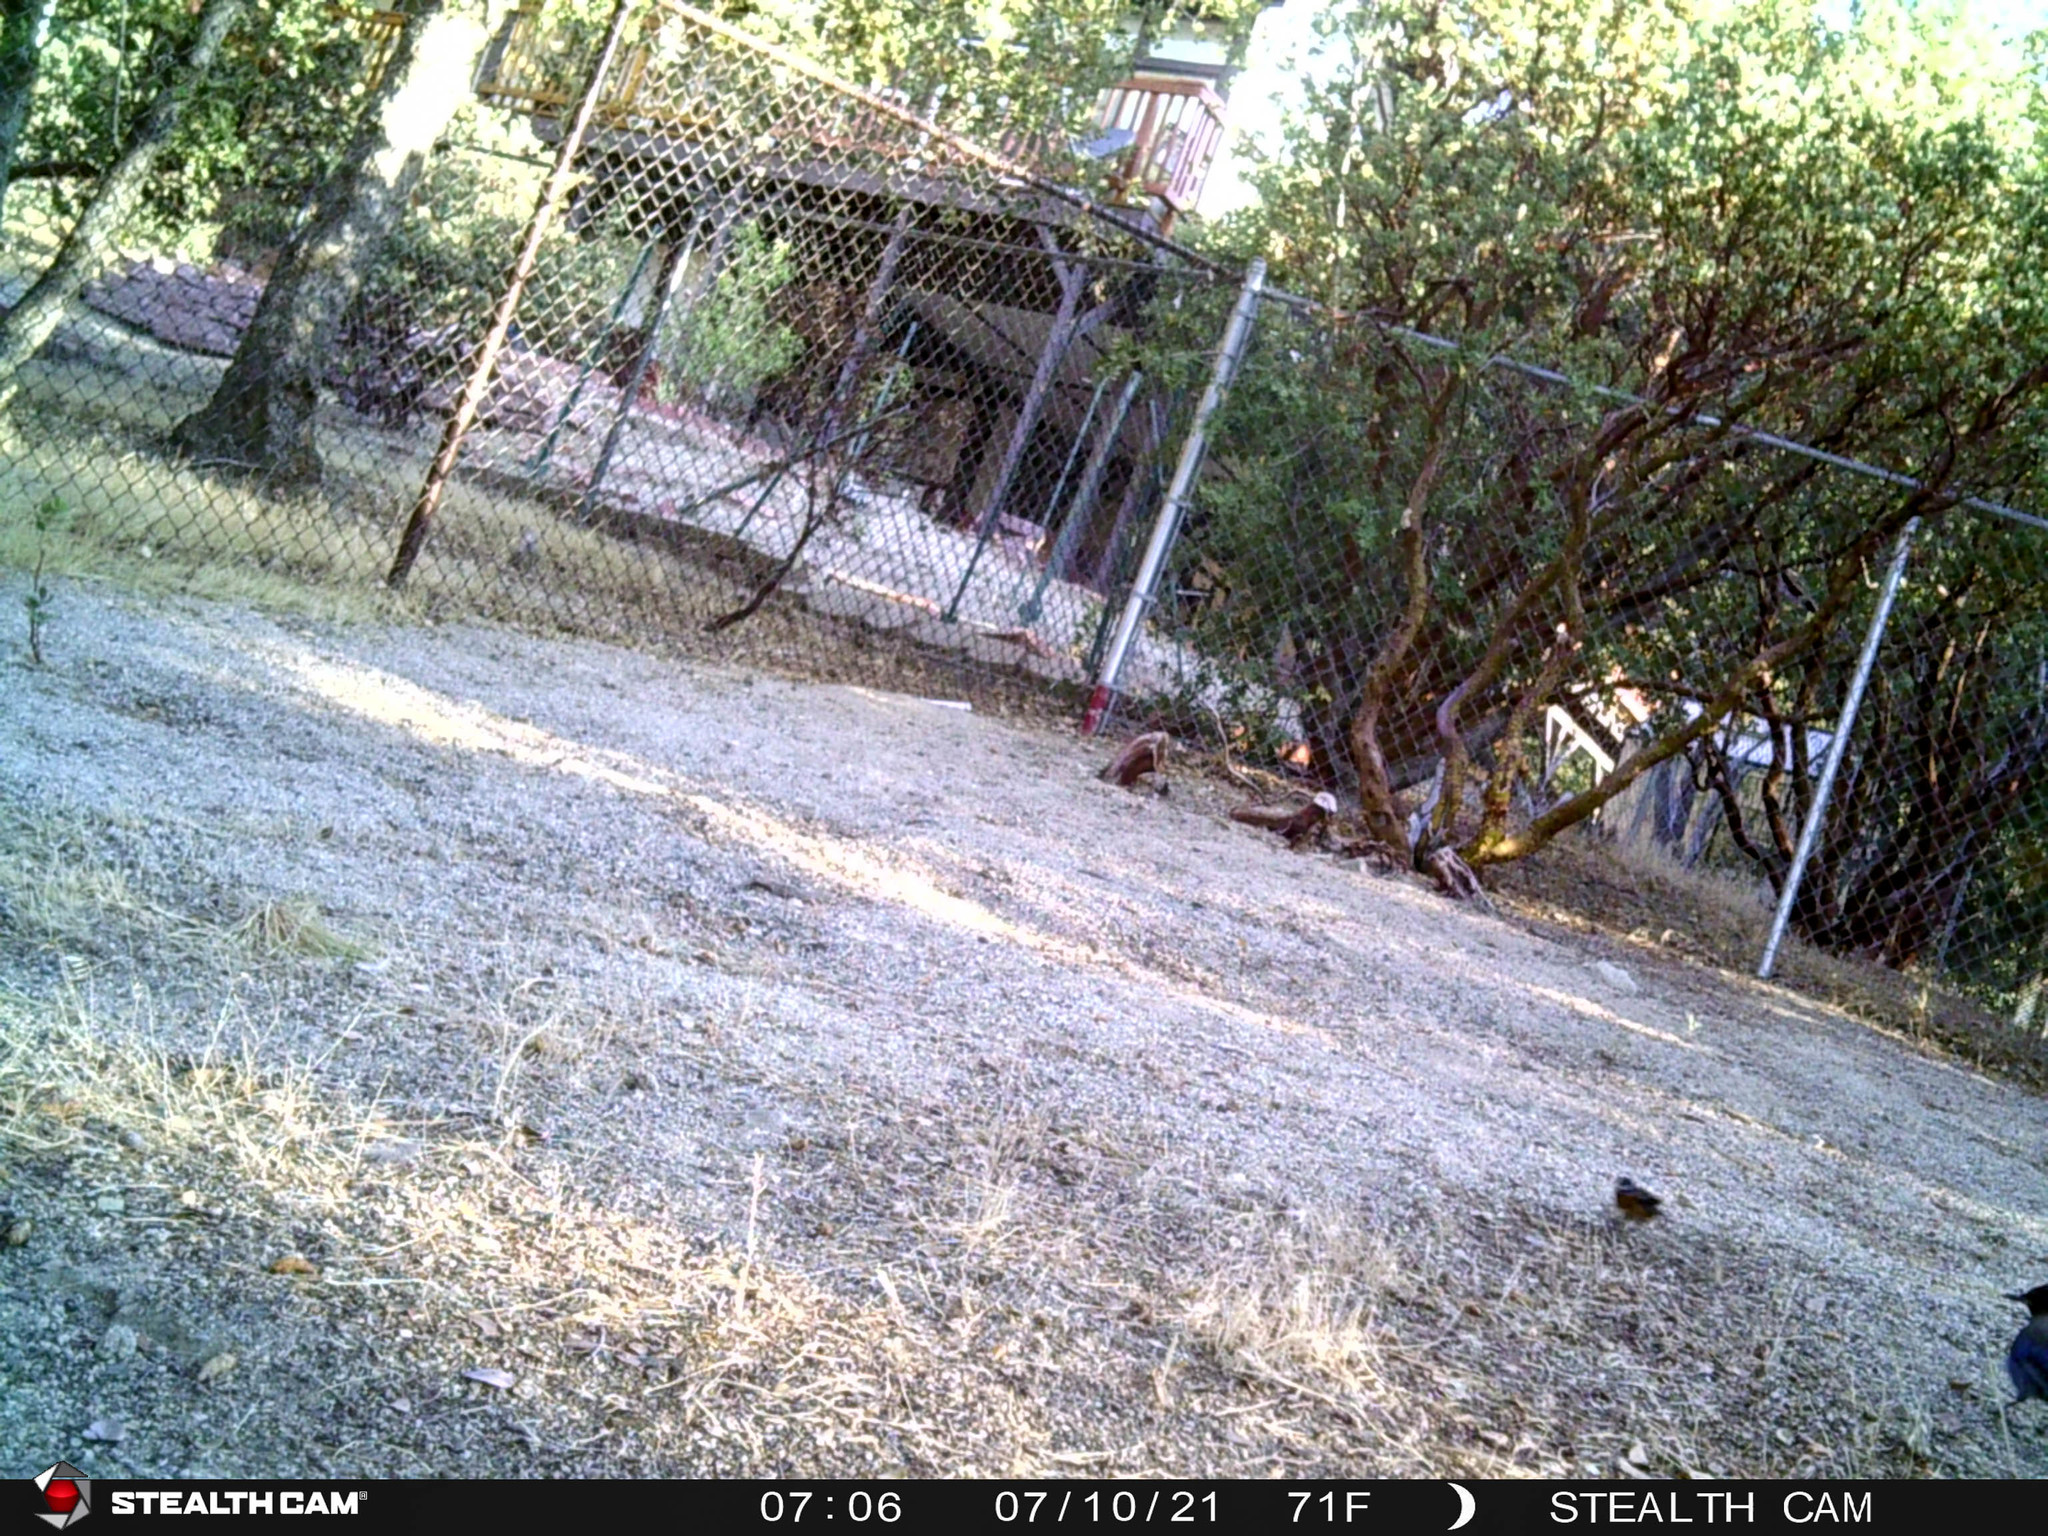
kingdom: Animalia
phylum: Chordata
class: Aves
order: Passeriformes
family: Cardinalidae
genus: Pheucticus
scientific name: Pheucticus melanocephalus
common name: Black-headed grosbeak
